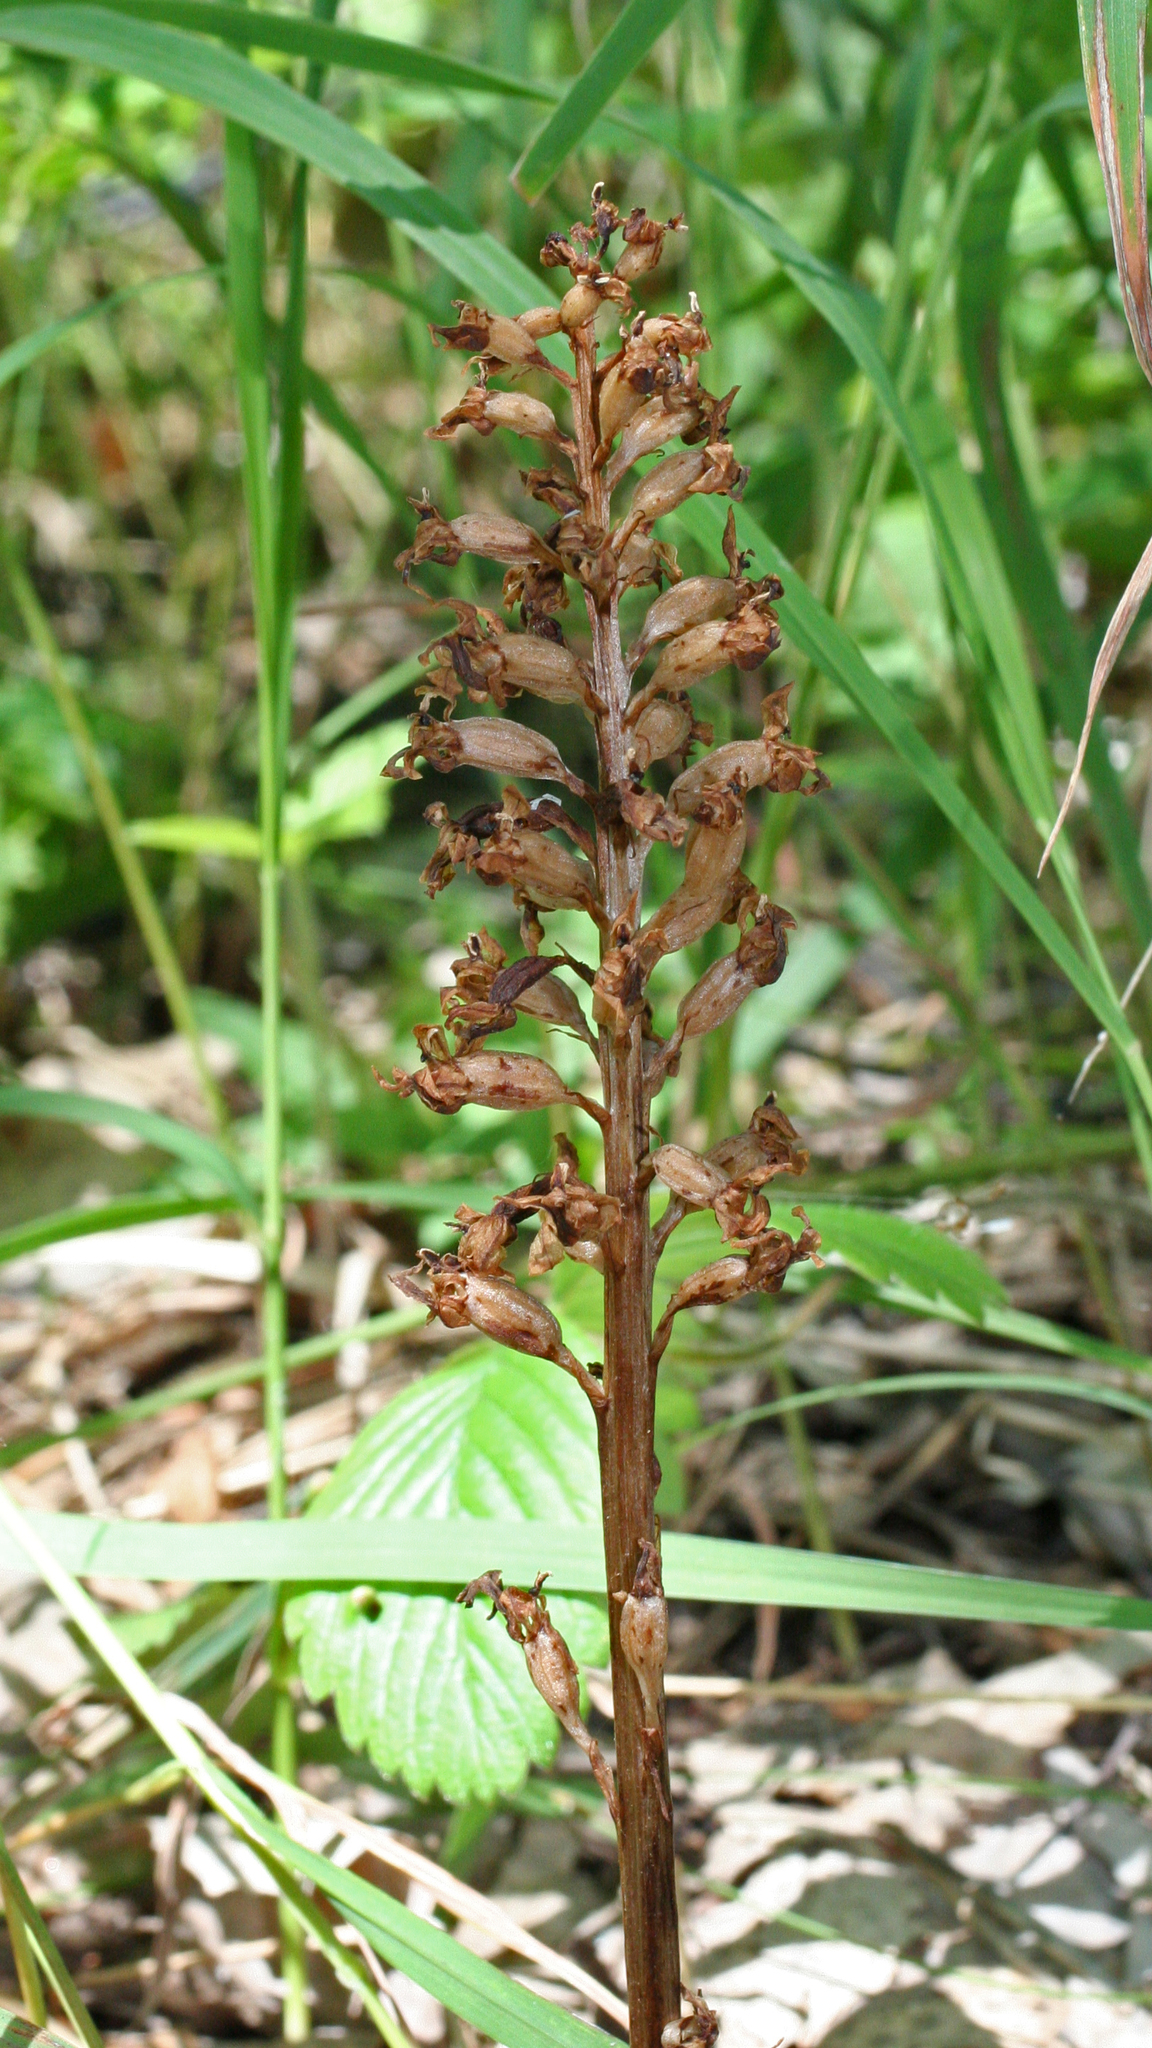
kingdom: Plantae
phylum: Tracheophyta
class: Liliopsida
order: Asparagales
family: Orchidaceae
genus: Neottia
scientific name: Neottia nidus-avis
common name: Bird's-nest orchid
